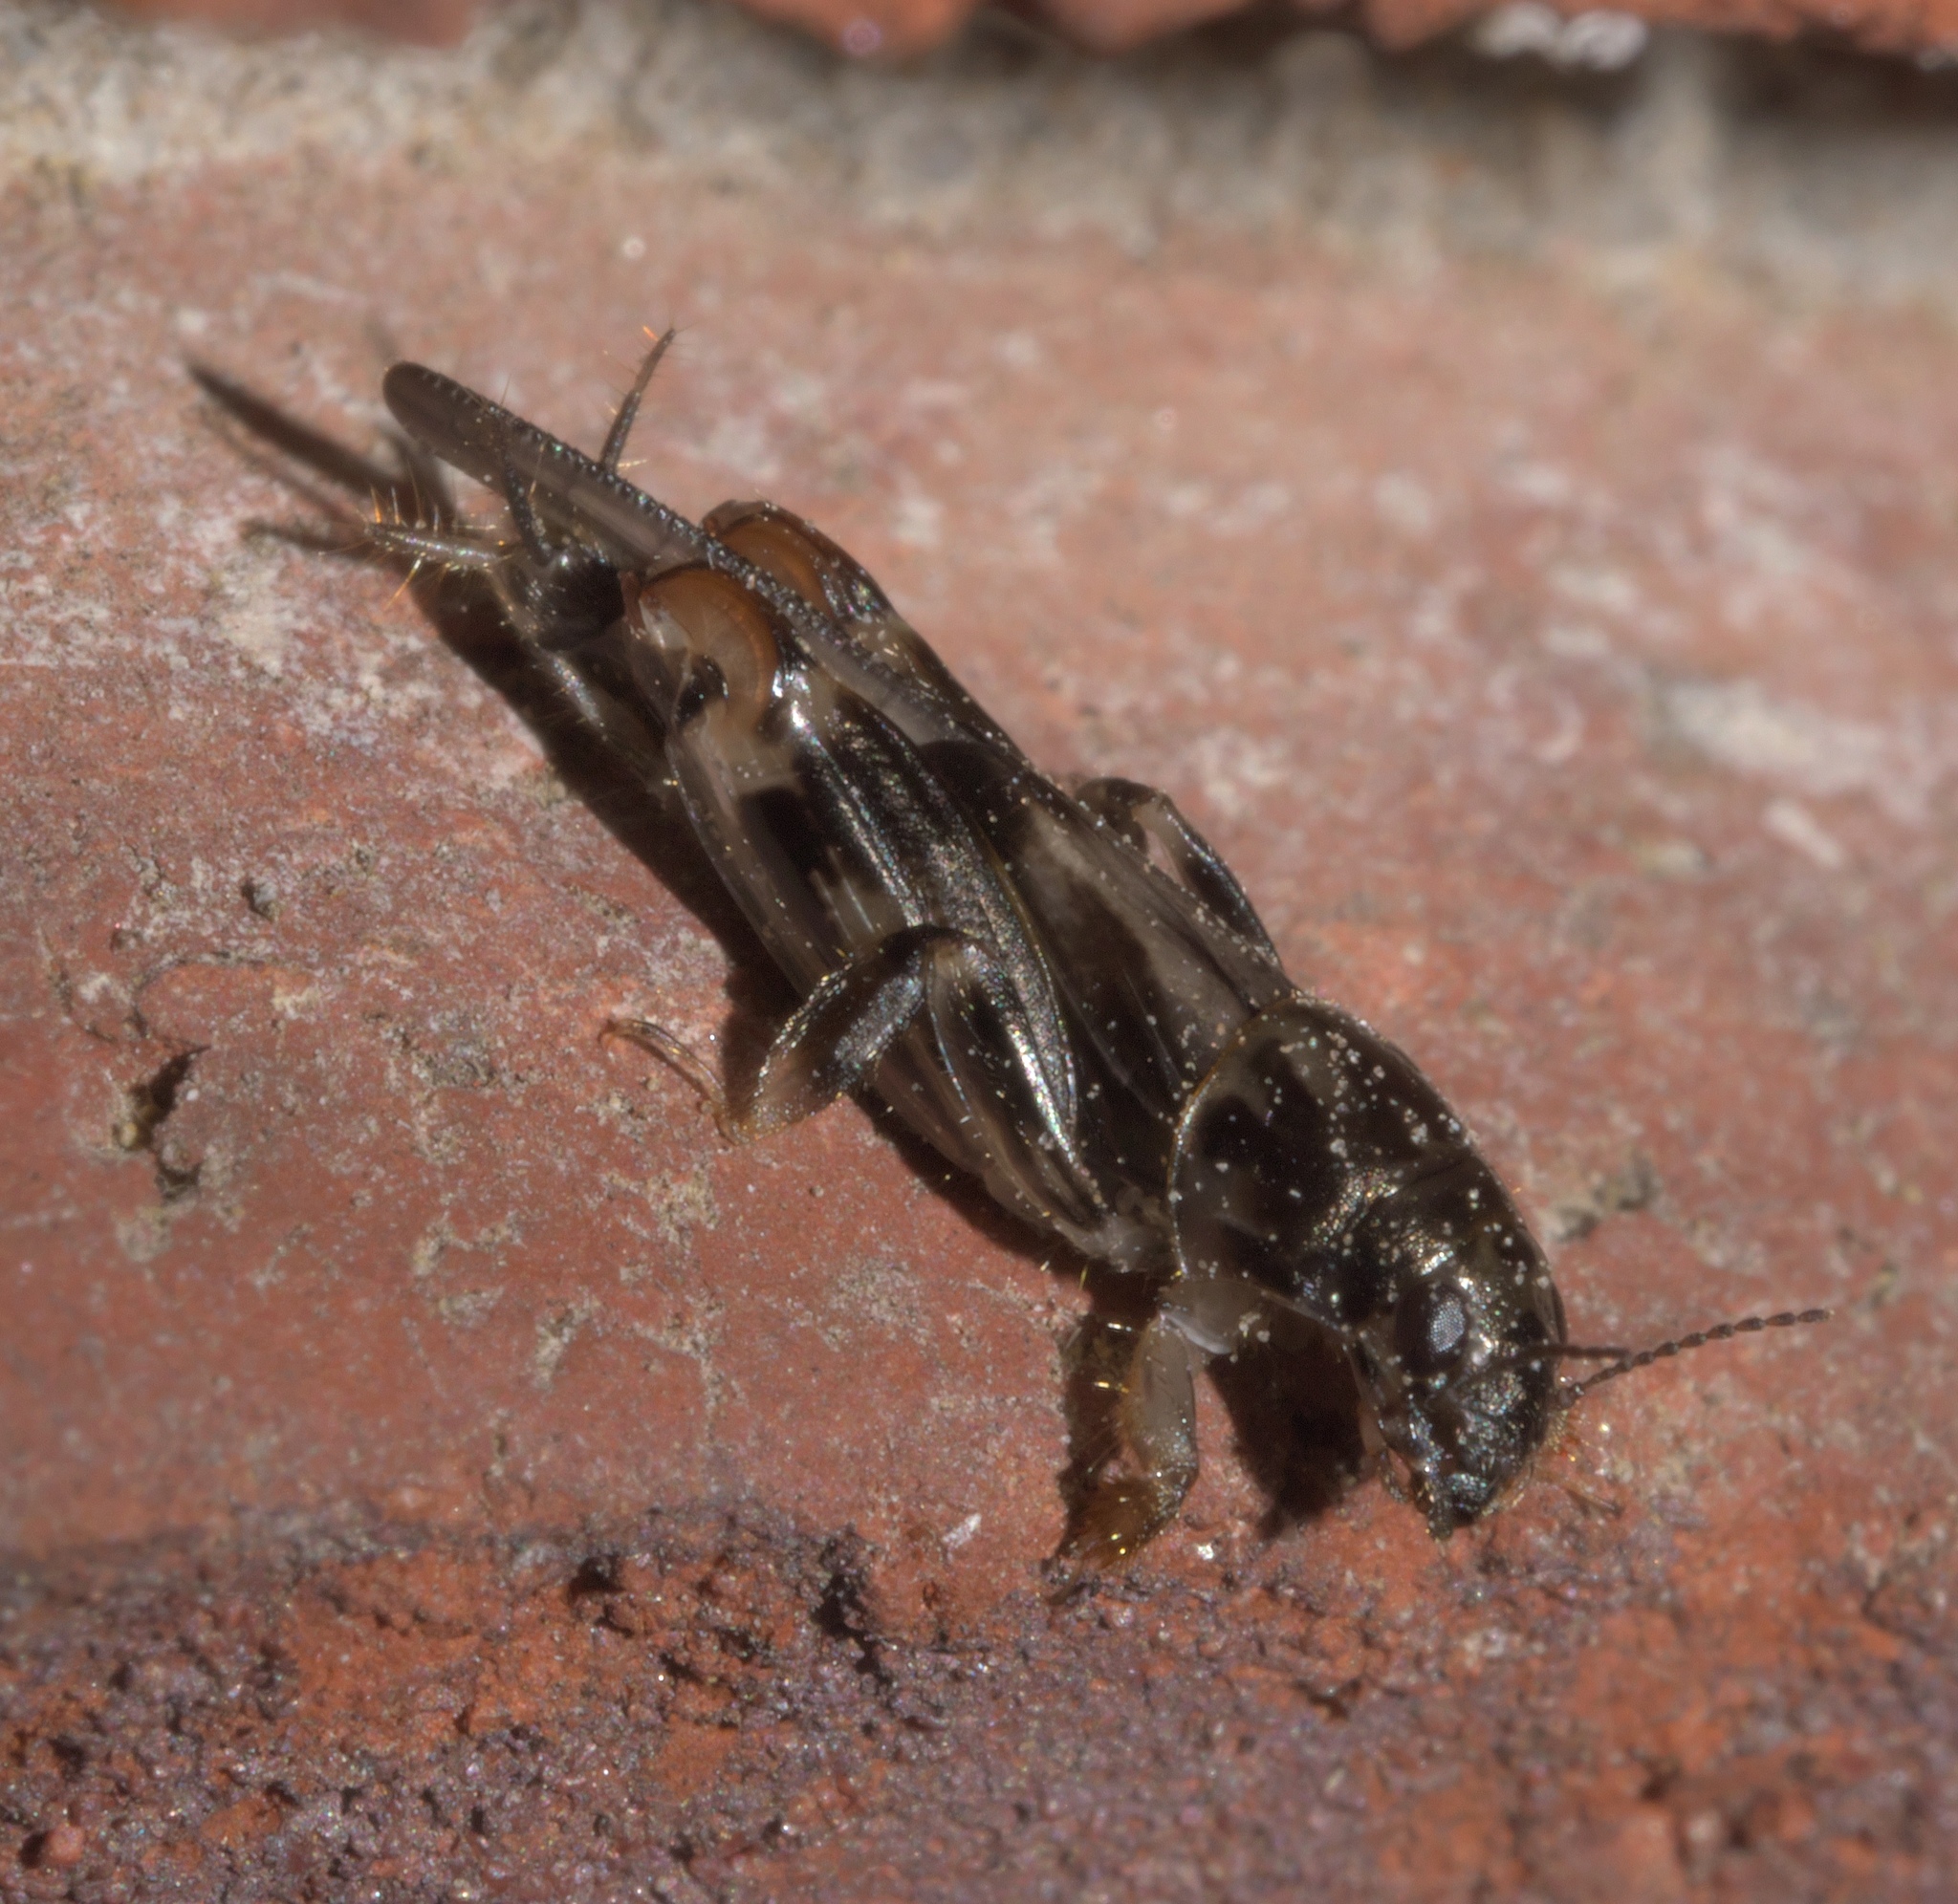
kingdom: Animalia
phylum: Arthropoda
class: Insecta
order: Orthoptera
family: Tridactylidae
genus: Neotridactylus
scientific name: Neotridactylus apicialis
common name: Larger pygmy locust
